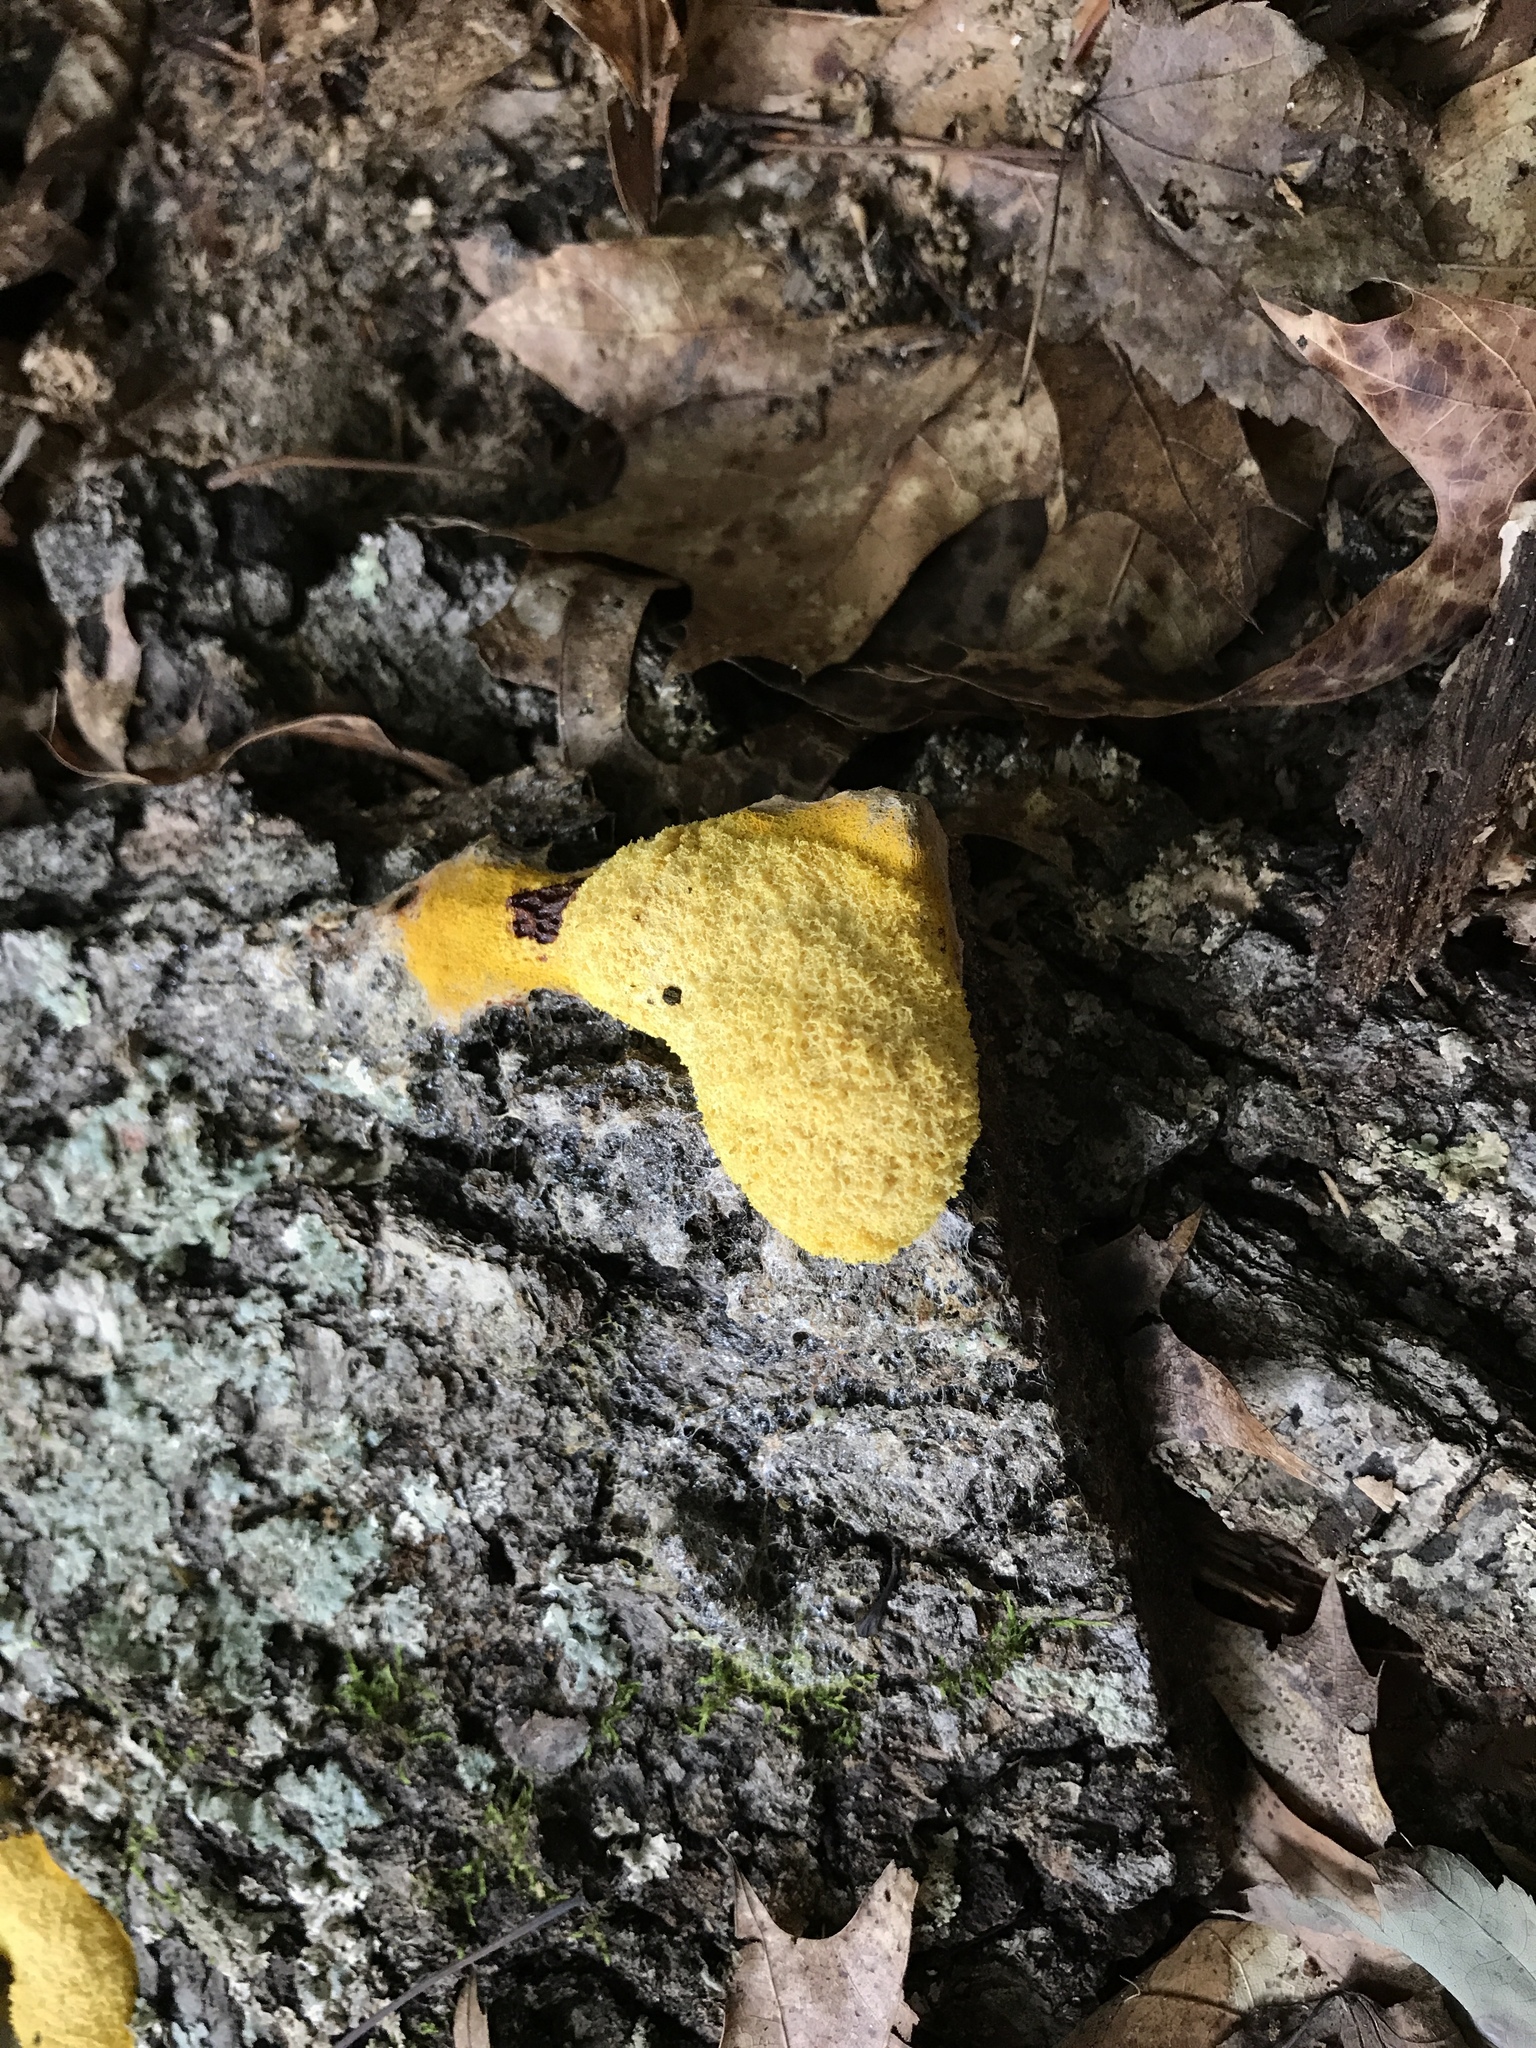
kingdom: Protozoa
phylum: Mycetozoa
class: Myxomycetes
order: Physarales
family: Physaraceae
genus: Fuligo
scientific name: Fuligo septica
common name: Dog vomit slime mold
